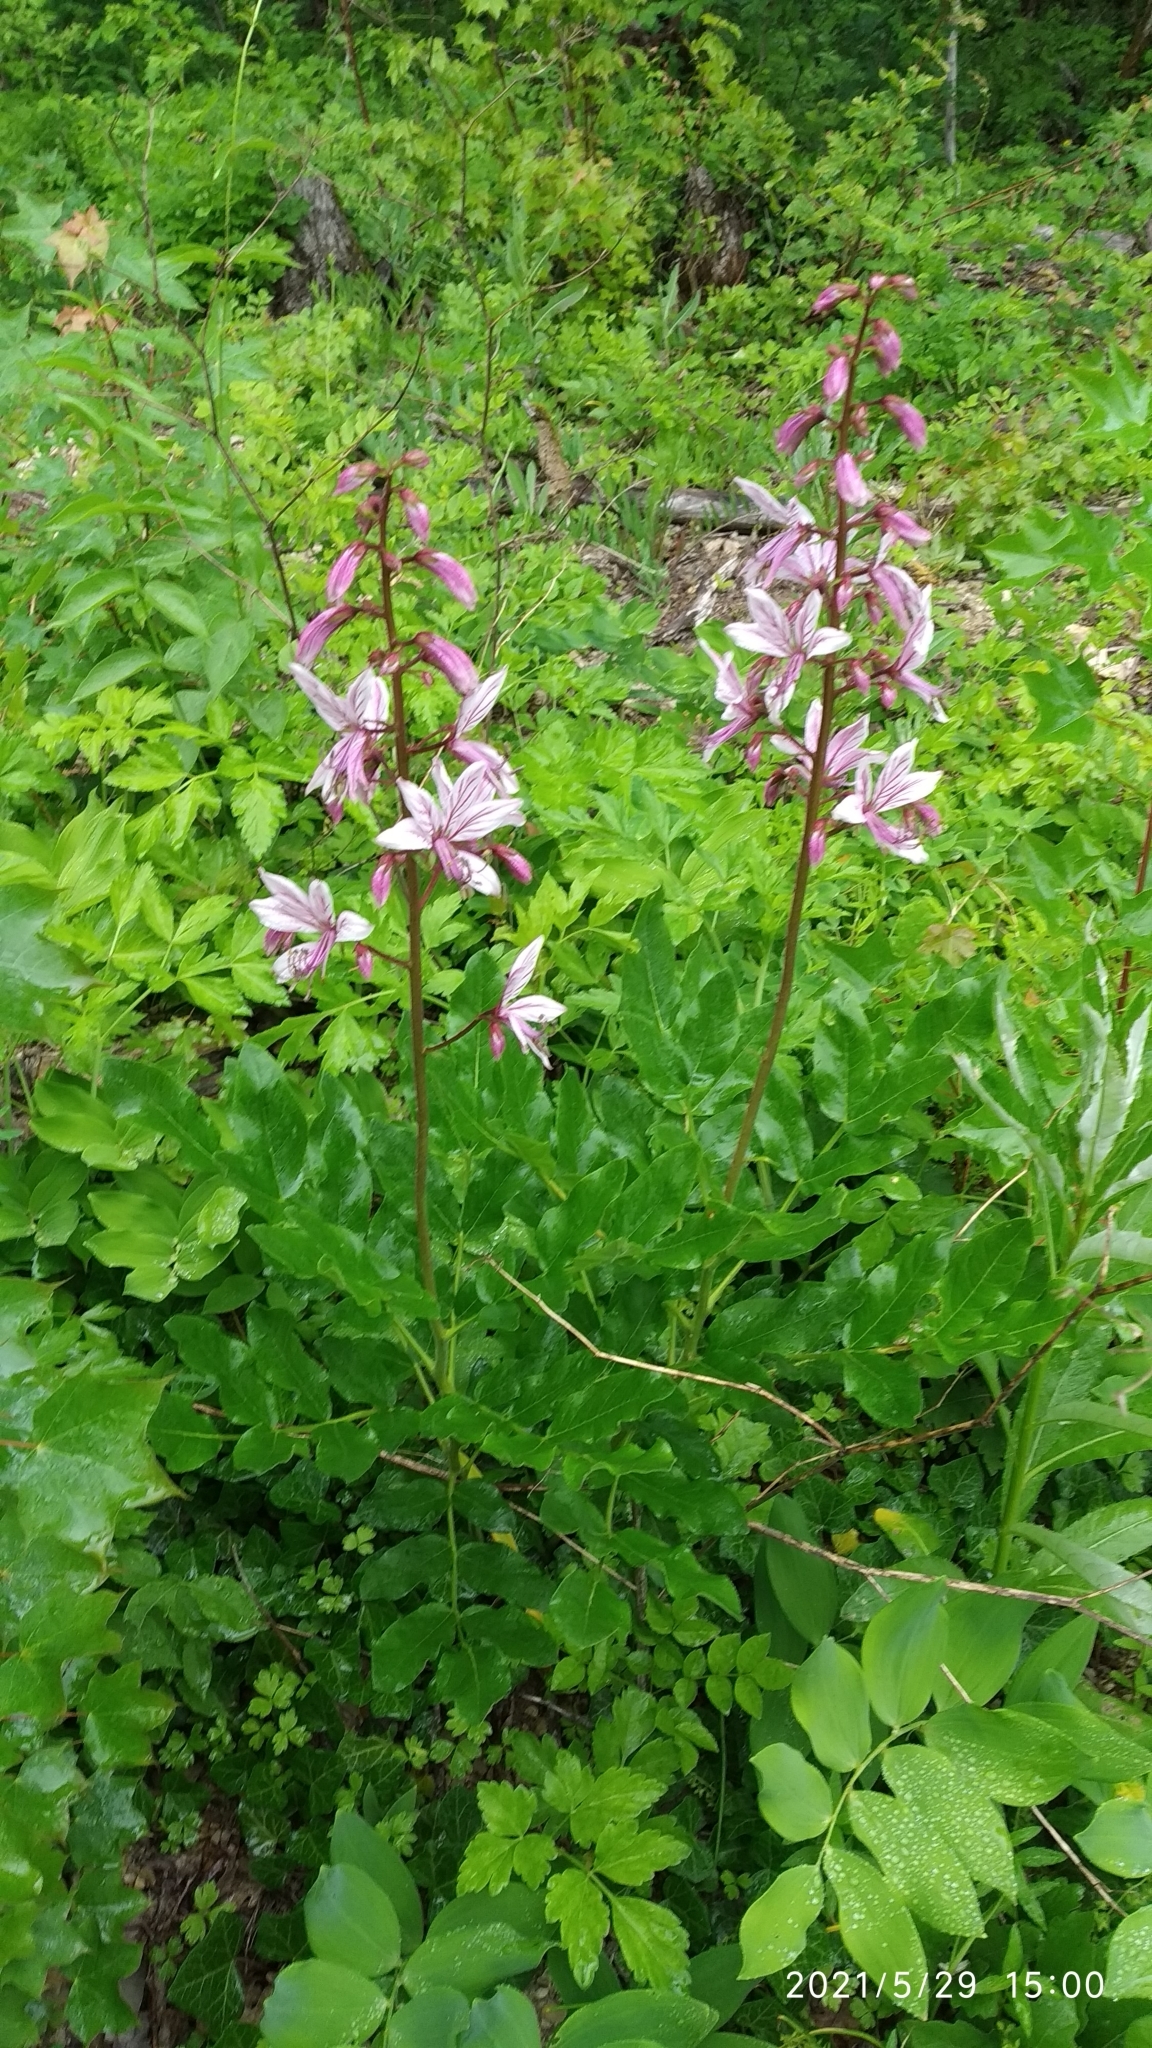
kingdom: Plantae
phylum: Tracheophyta
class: Magnoliopsida
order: Sapindales
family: Rutaceae
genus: Dictamnus
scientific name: Dictamnus albus
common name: Gasplant
